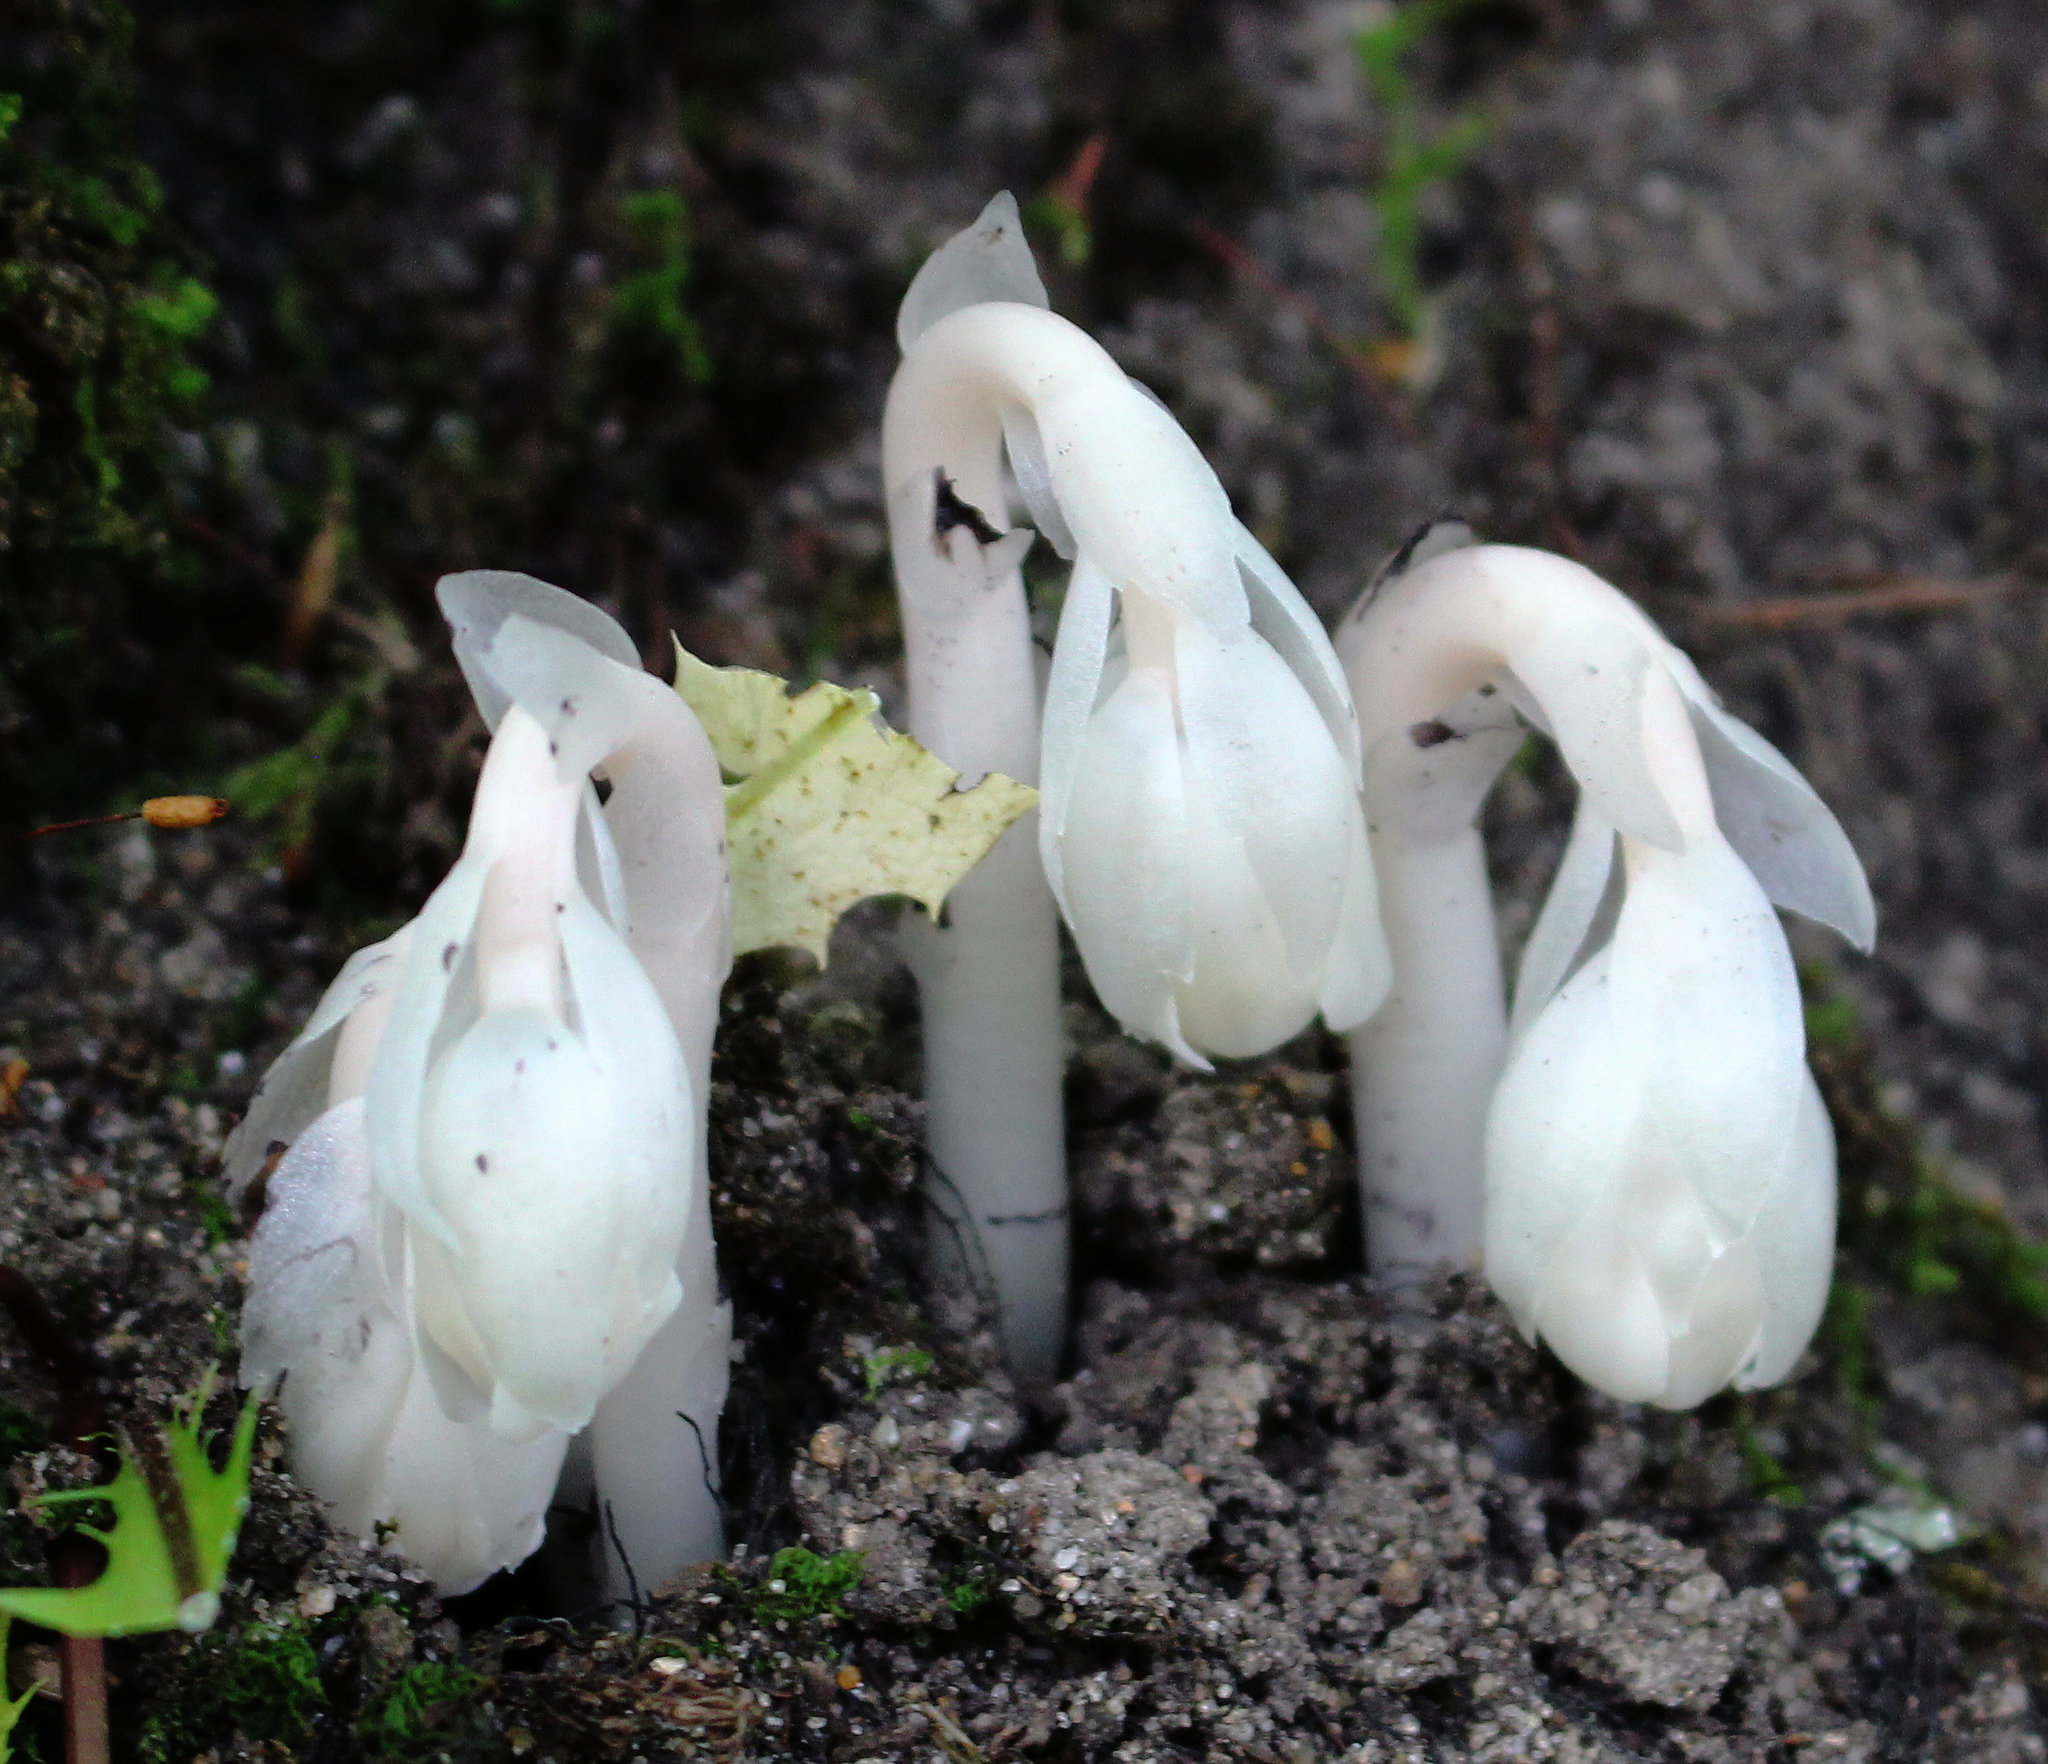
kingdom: Plantae
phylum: Tracheophyta
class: Magnoliopsida
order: Ericales
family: Ericaceae
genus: Monotropa
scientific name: Monotropa uniflora
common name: Convulsion root
